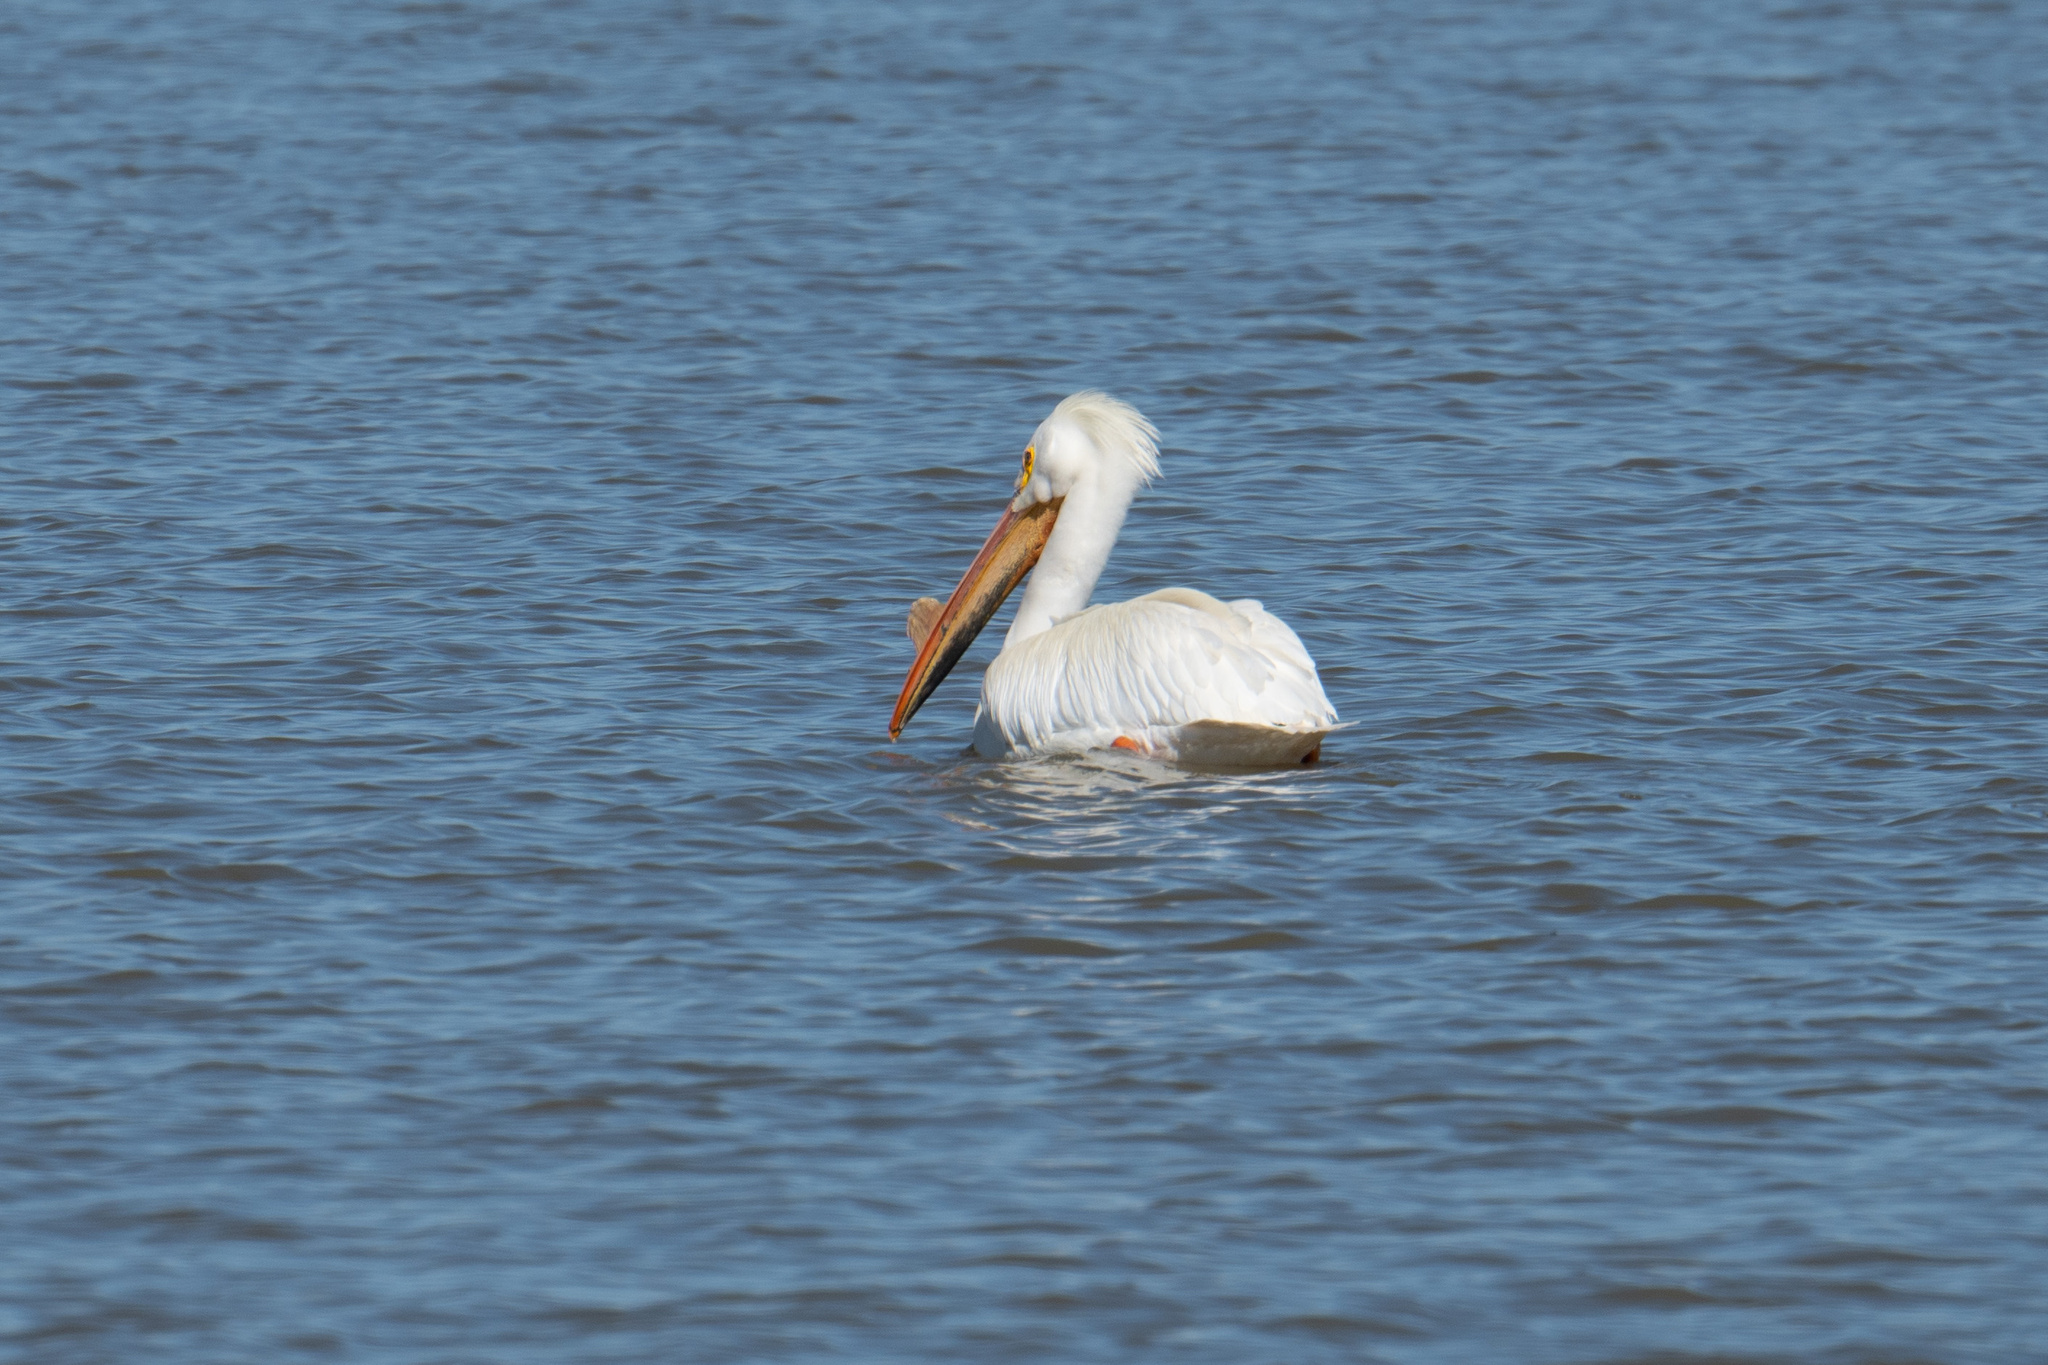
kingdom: Animalia
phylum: Chordata
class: Aves
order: Pelecaniformes
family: Pelecanidae
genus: Pelecanus
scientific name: Pelecanus erythrorhynchos
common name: American white pelican
